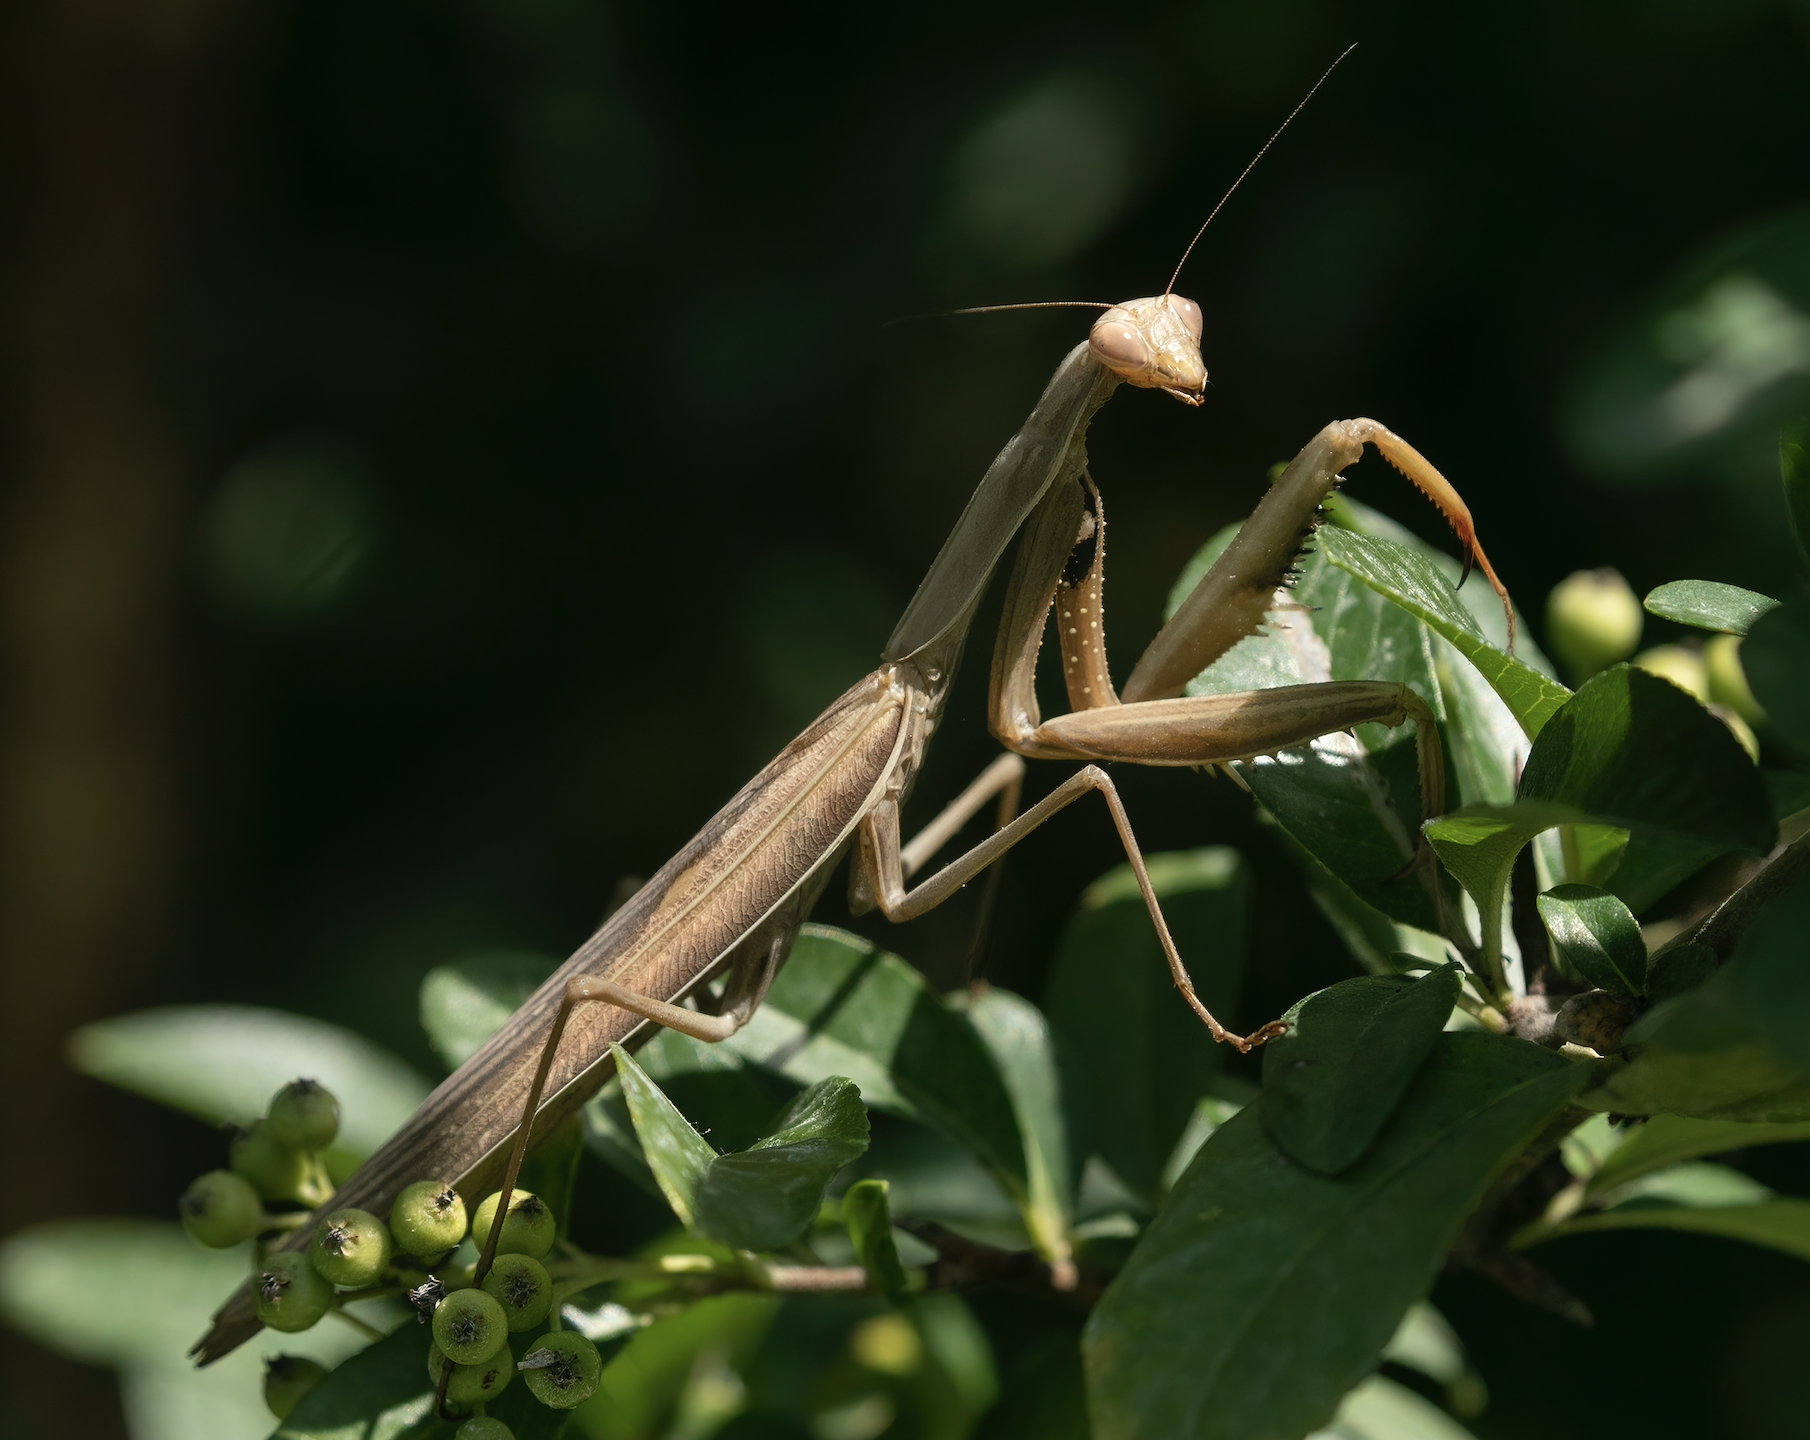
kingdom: Animalia
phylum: Arthropoda
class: Insecta
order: Mantodea
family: Mantidae
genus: Mantis
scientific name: Mantis religiosa
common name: Praying mantis
